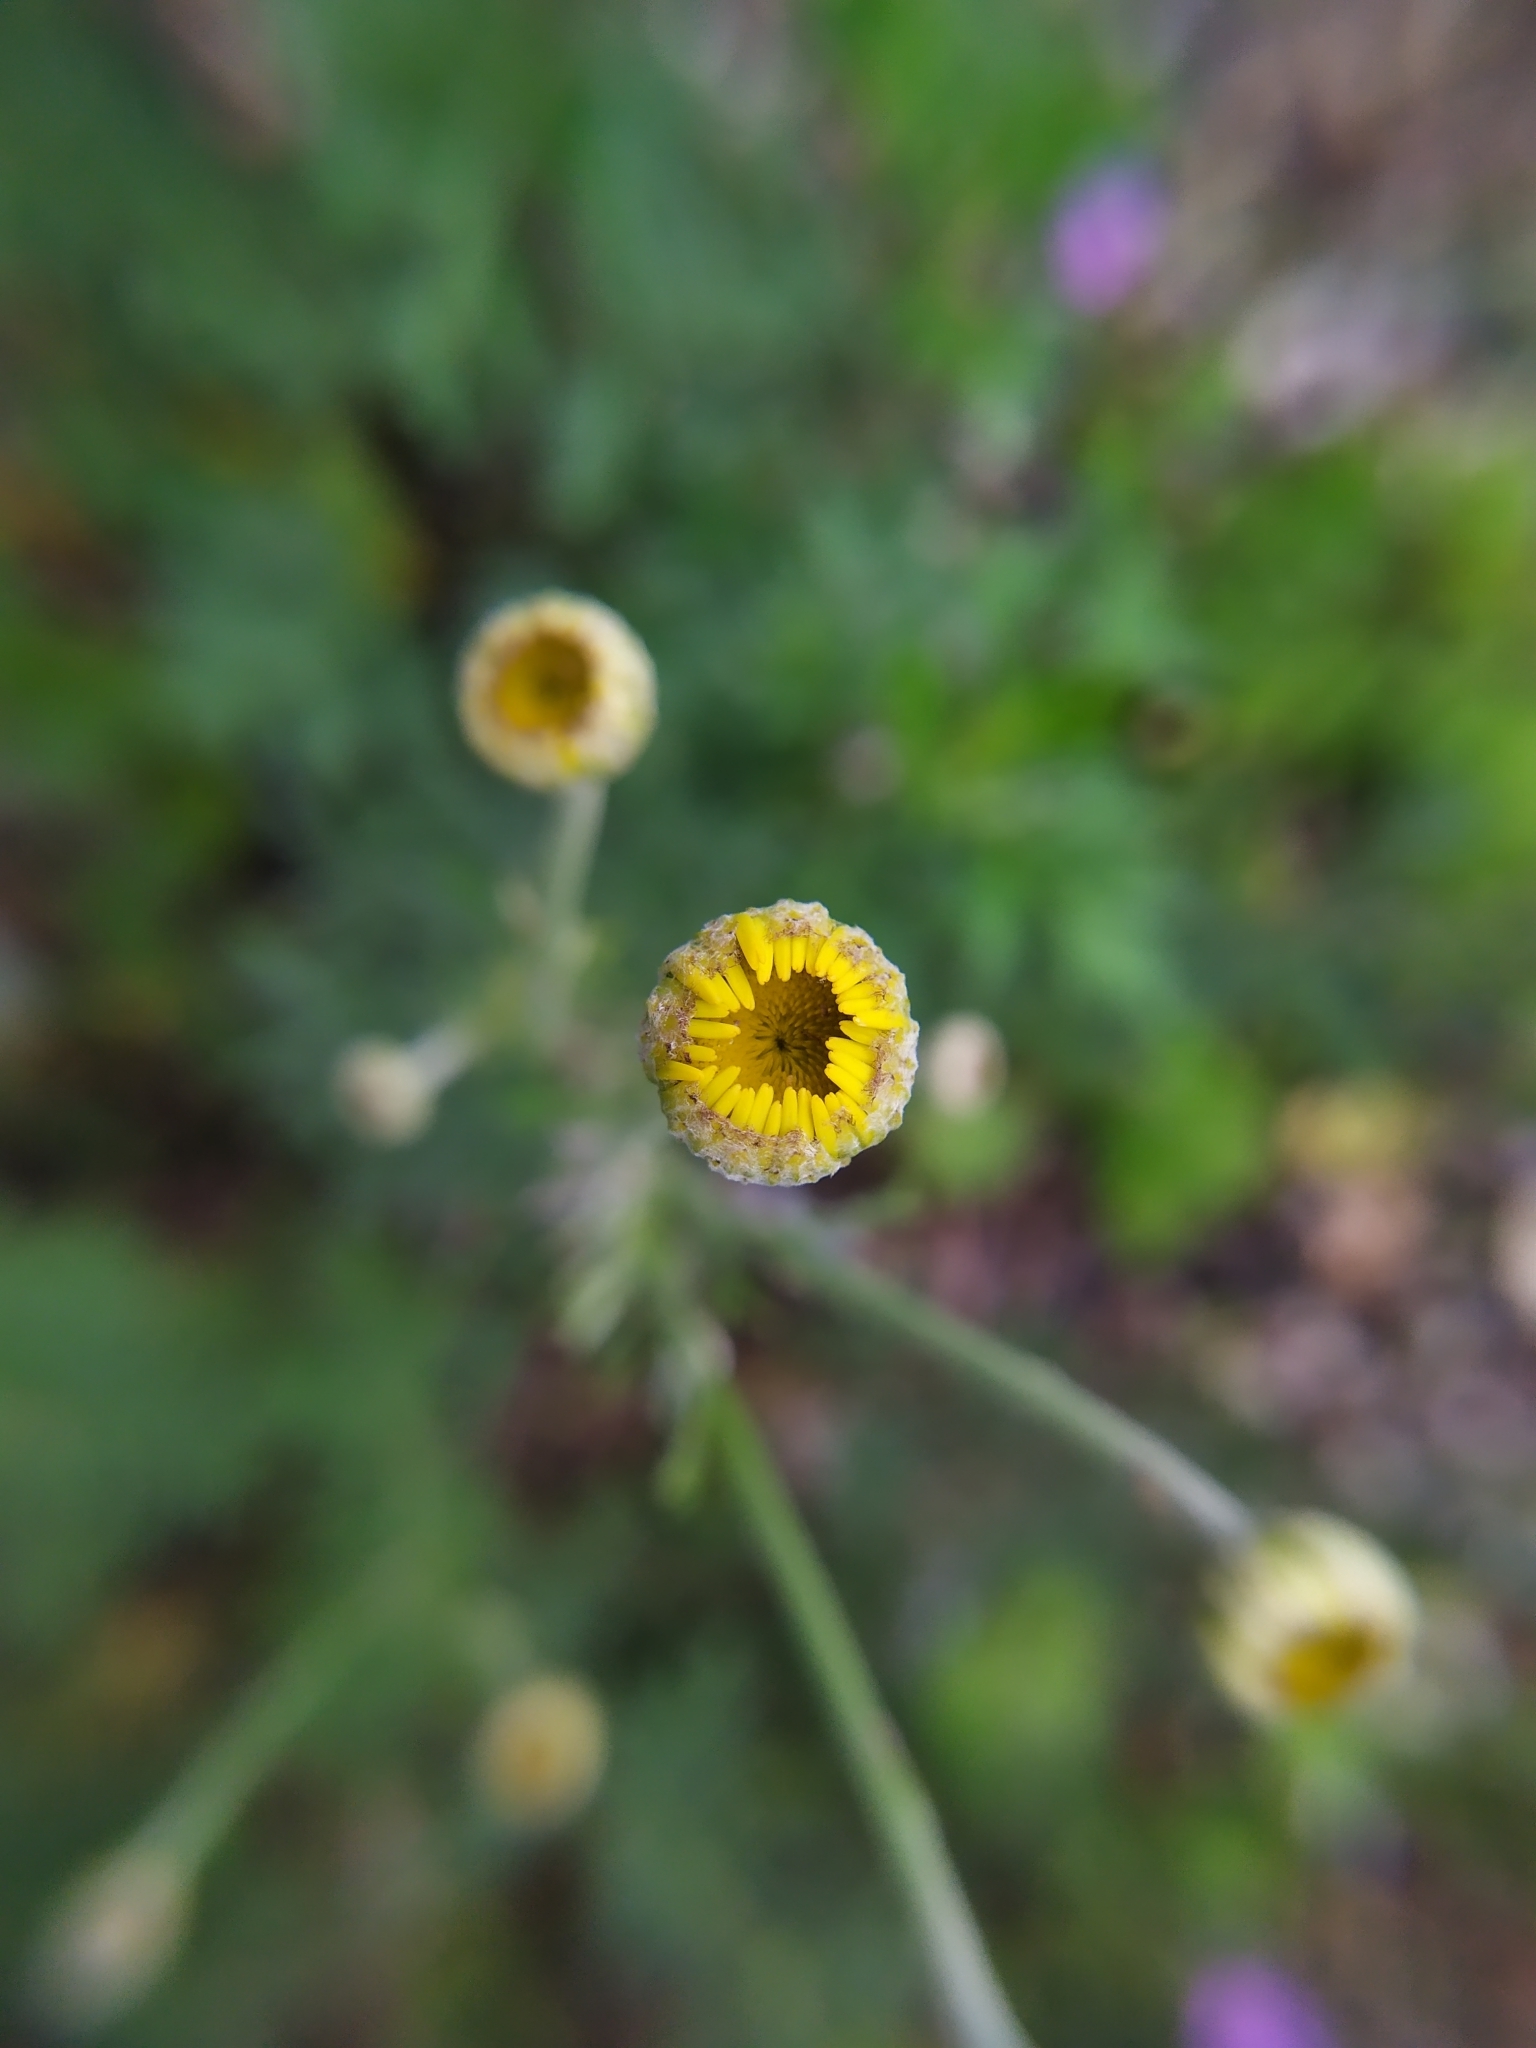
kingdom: Plantae
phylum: Tracheophyta
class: Magnoliopsida
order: Asterales
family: Asteraceae
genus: Cota
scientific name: Cota tinctoria
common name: Golden chamomile
